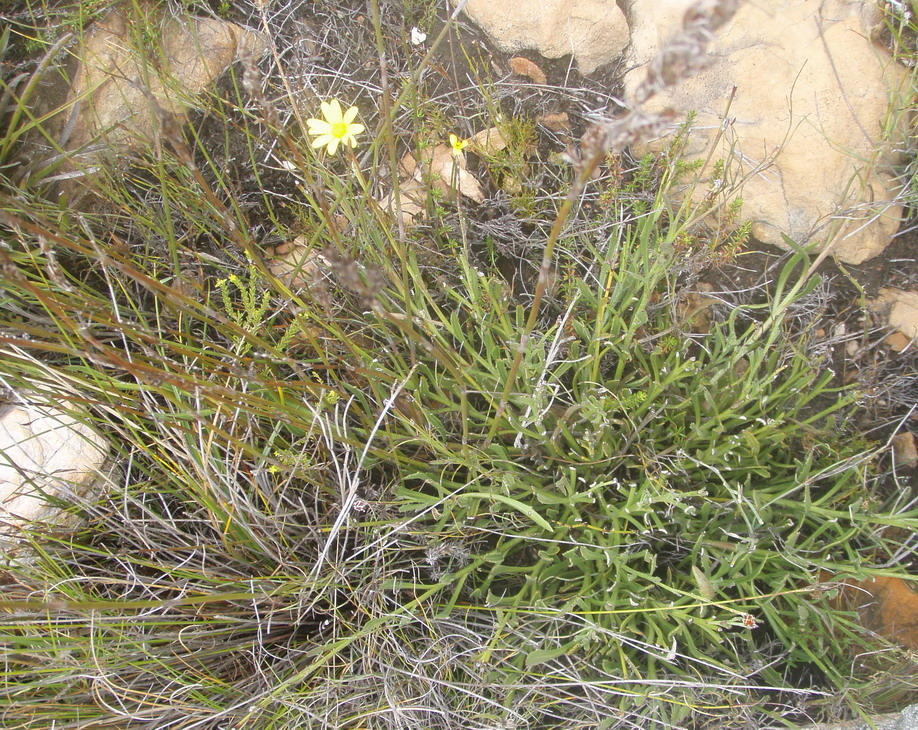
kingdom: Plantae
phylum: Tracheophyta
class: Magnoliopsida
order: Asterales
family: Asteraceae
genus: Osteospermum
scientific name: Osteospermum asperulum
